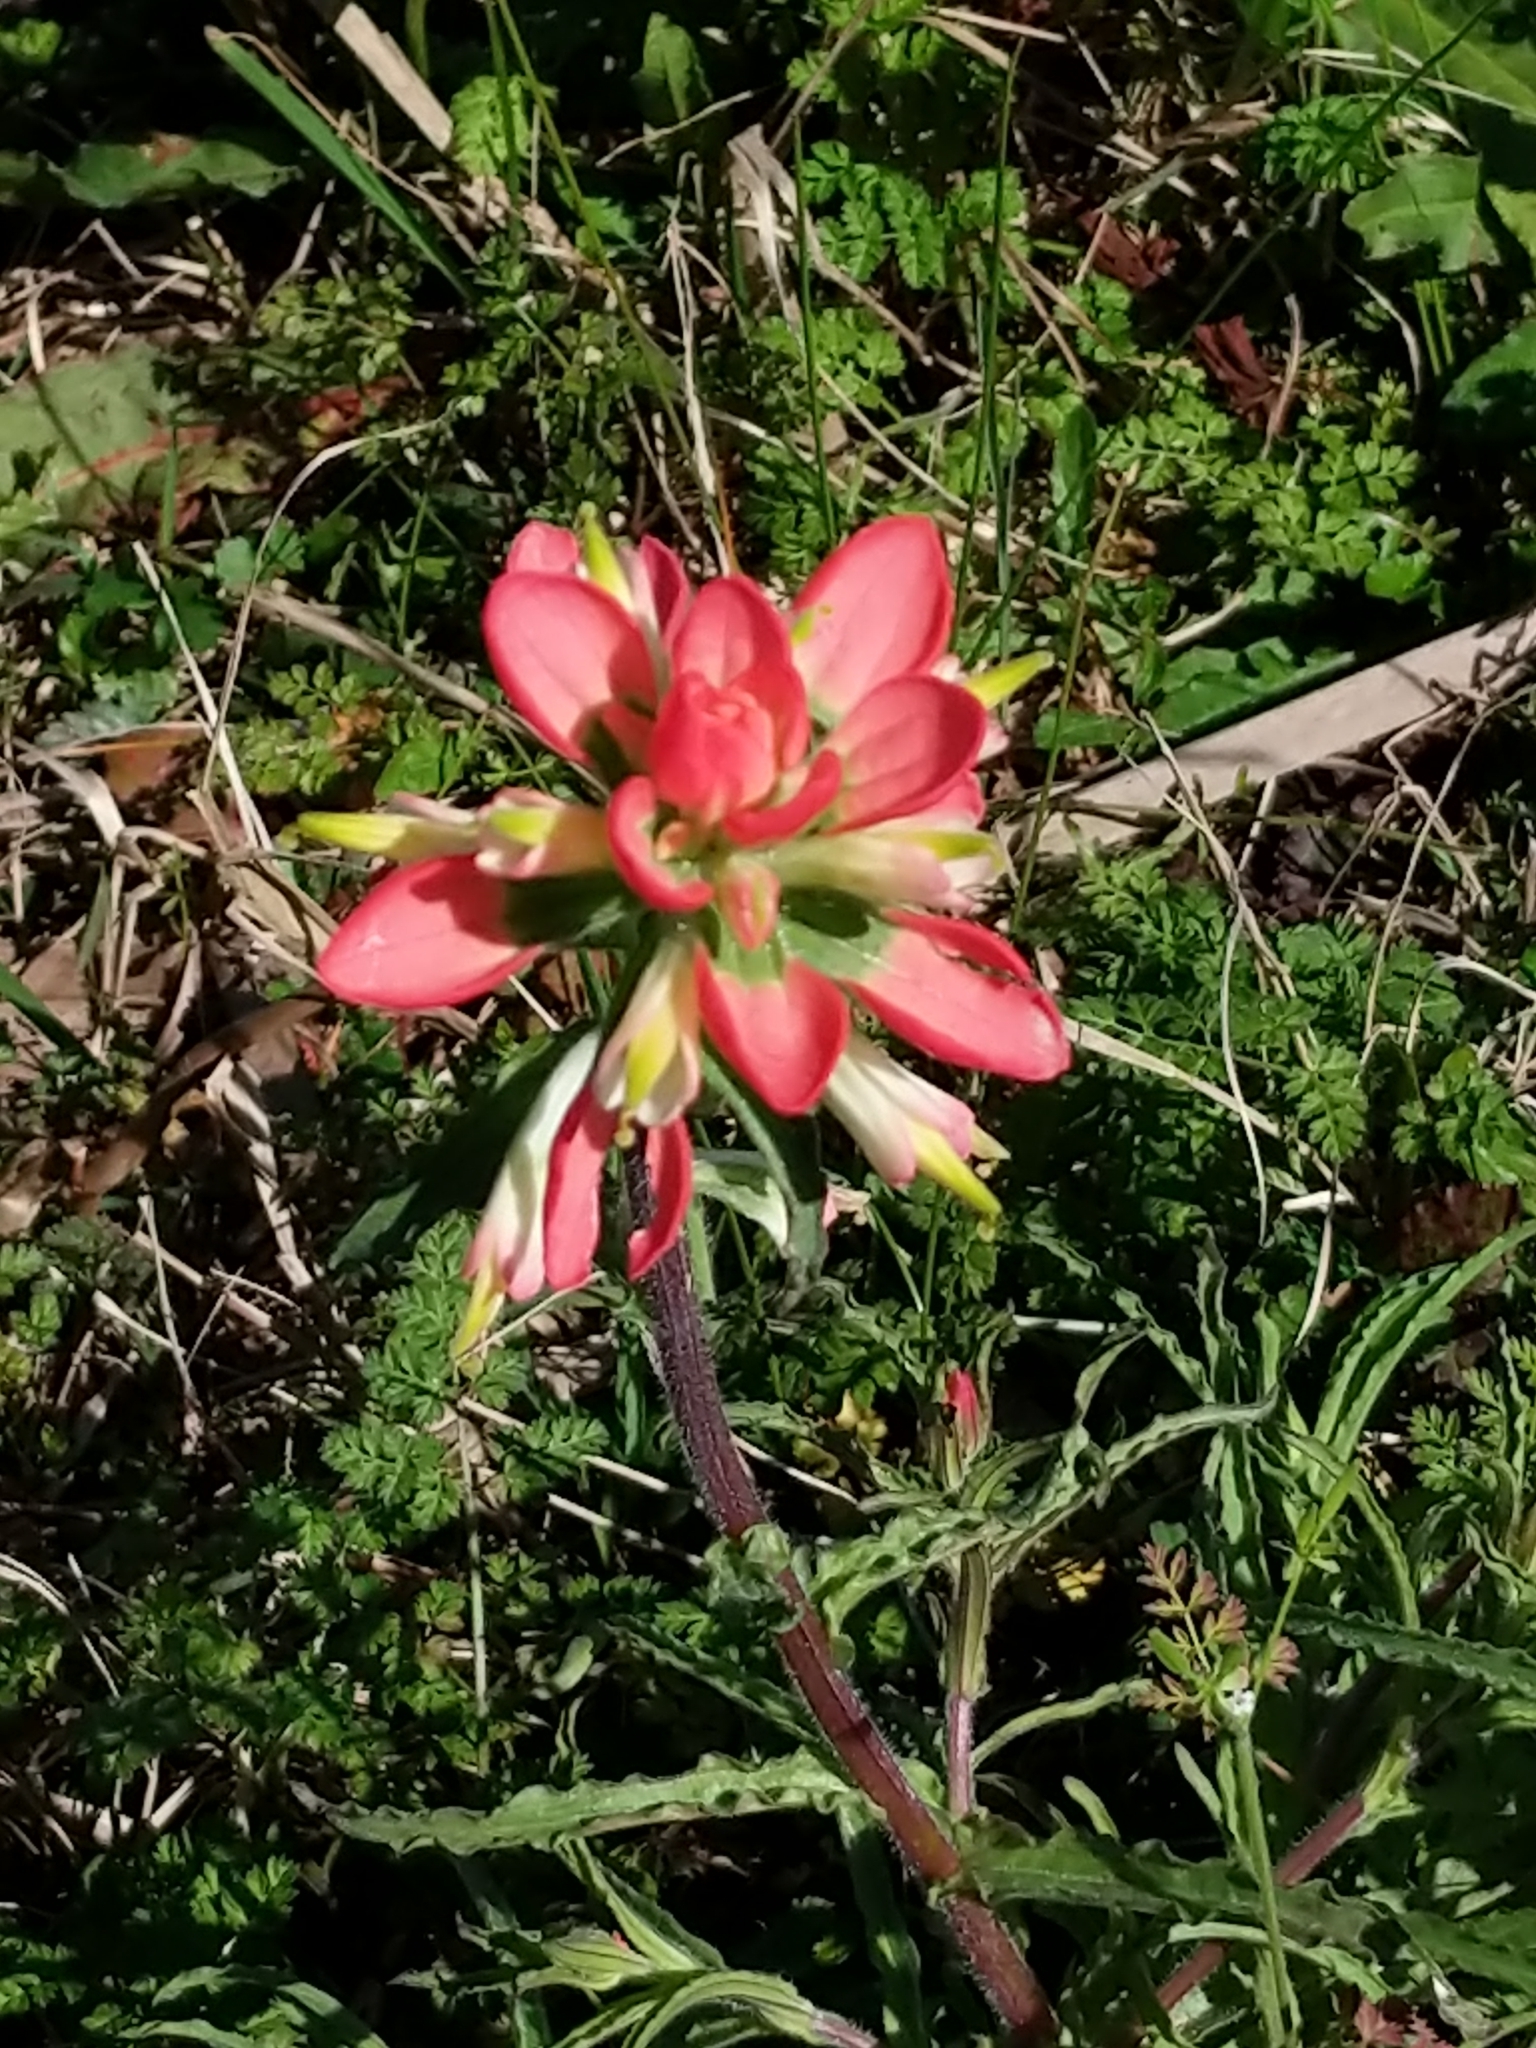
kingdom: Plantae
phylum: Tracheophyta
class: Magnoliopsida
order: Lamiales
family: Orobanchaceae
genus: Castilleja
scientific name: Castilleja indivisa
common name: Texas paintbrush
